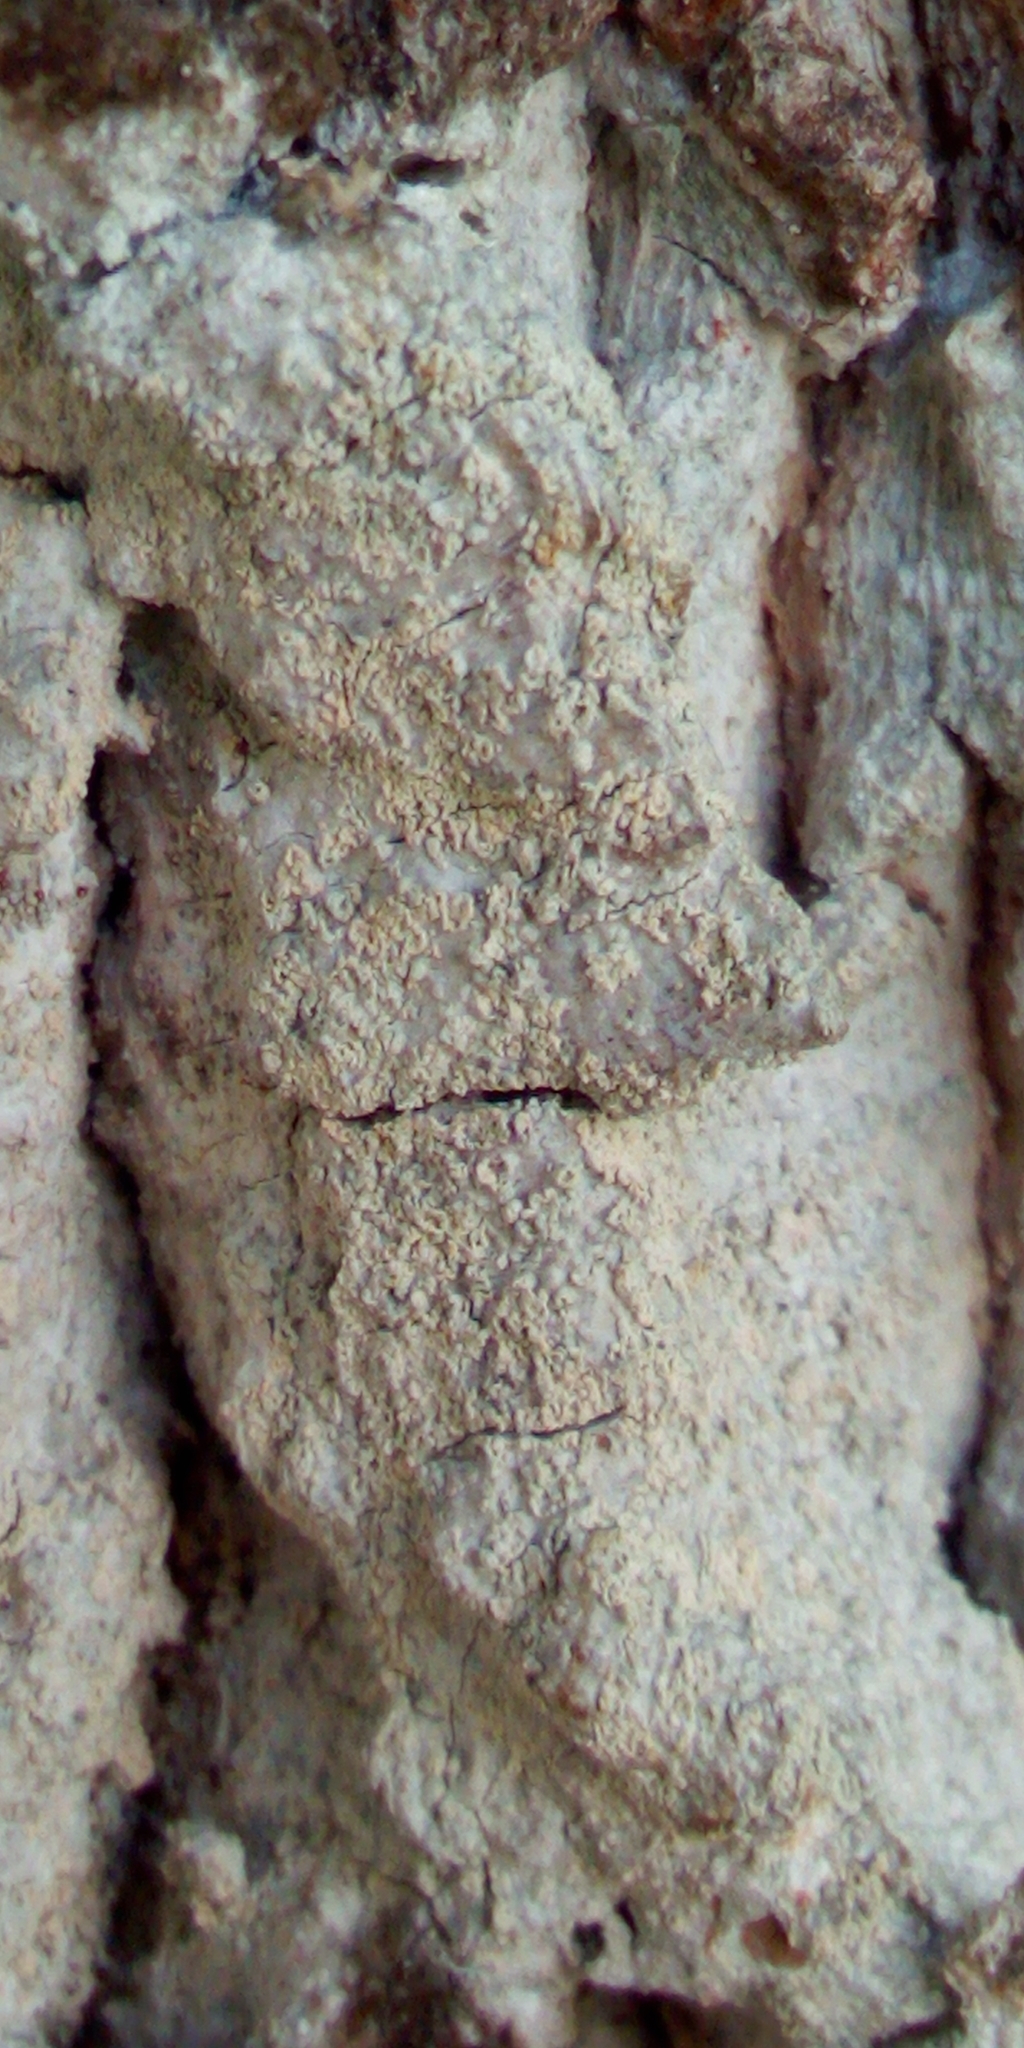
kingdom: Fungi
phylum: Ascomycota
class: Lecanoromycetes
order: Ostropales
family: Phlyctidaceae
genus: Phlyctis
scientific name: Phlyctis argena
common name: Whitewash lichen
